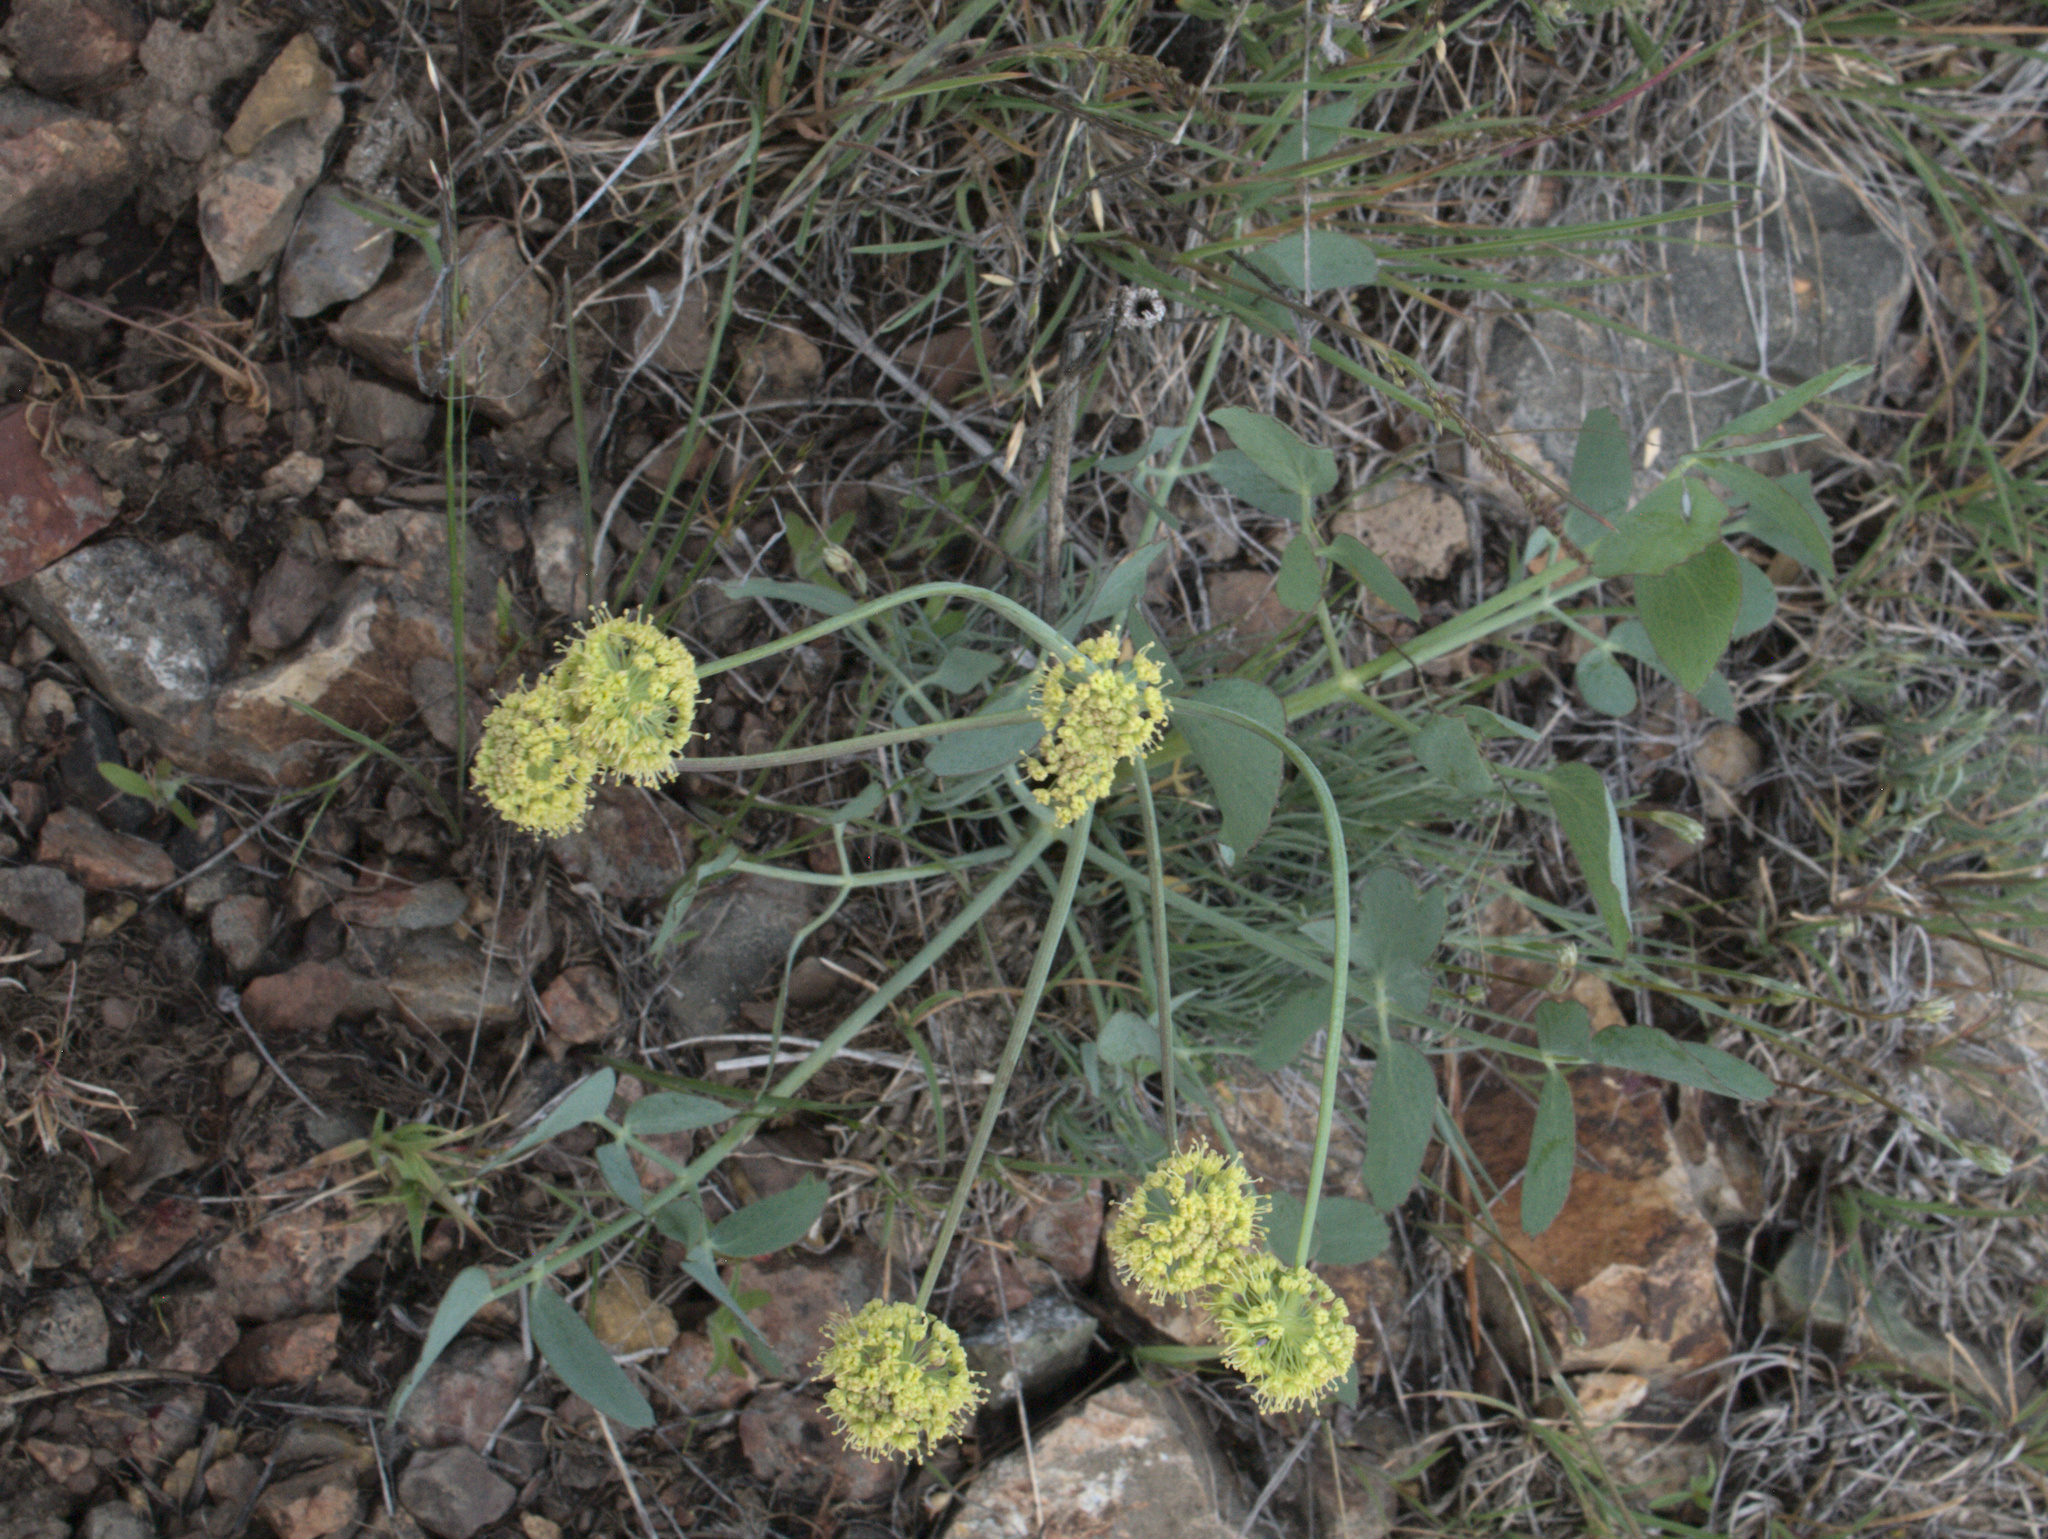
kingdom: Plantae
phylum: Tracheophyta
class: Magnoliopsida
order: Apiales
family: Apiaceae
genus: Lomatium
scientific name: Lomatium nudicaule
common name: Pestle lomatium
